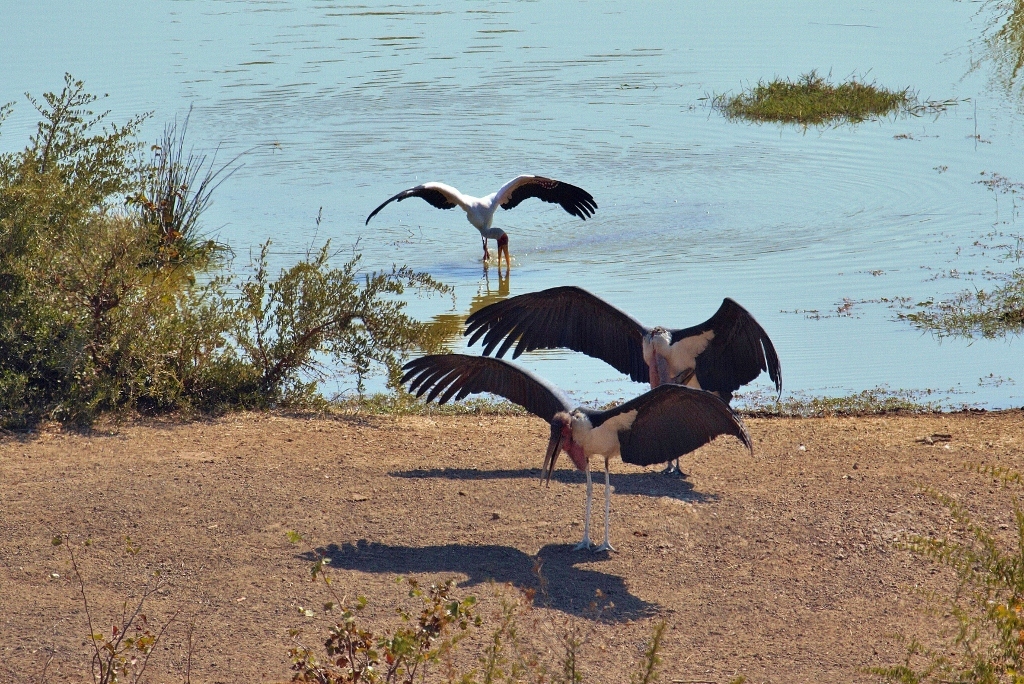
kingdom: Animalia
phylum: Chordata
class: Aves
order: Ciconiiformes
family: Ciconiidae
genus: Leptoptilos
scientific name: Leptoptilos crumenifer
